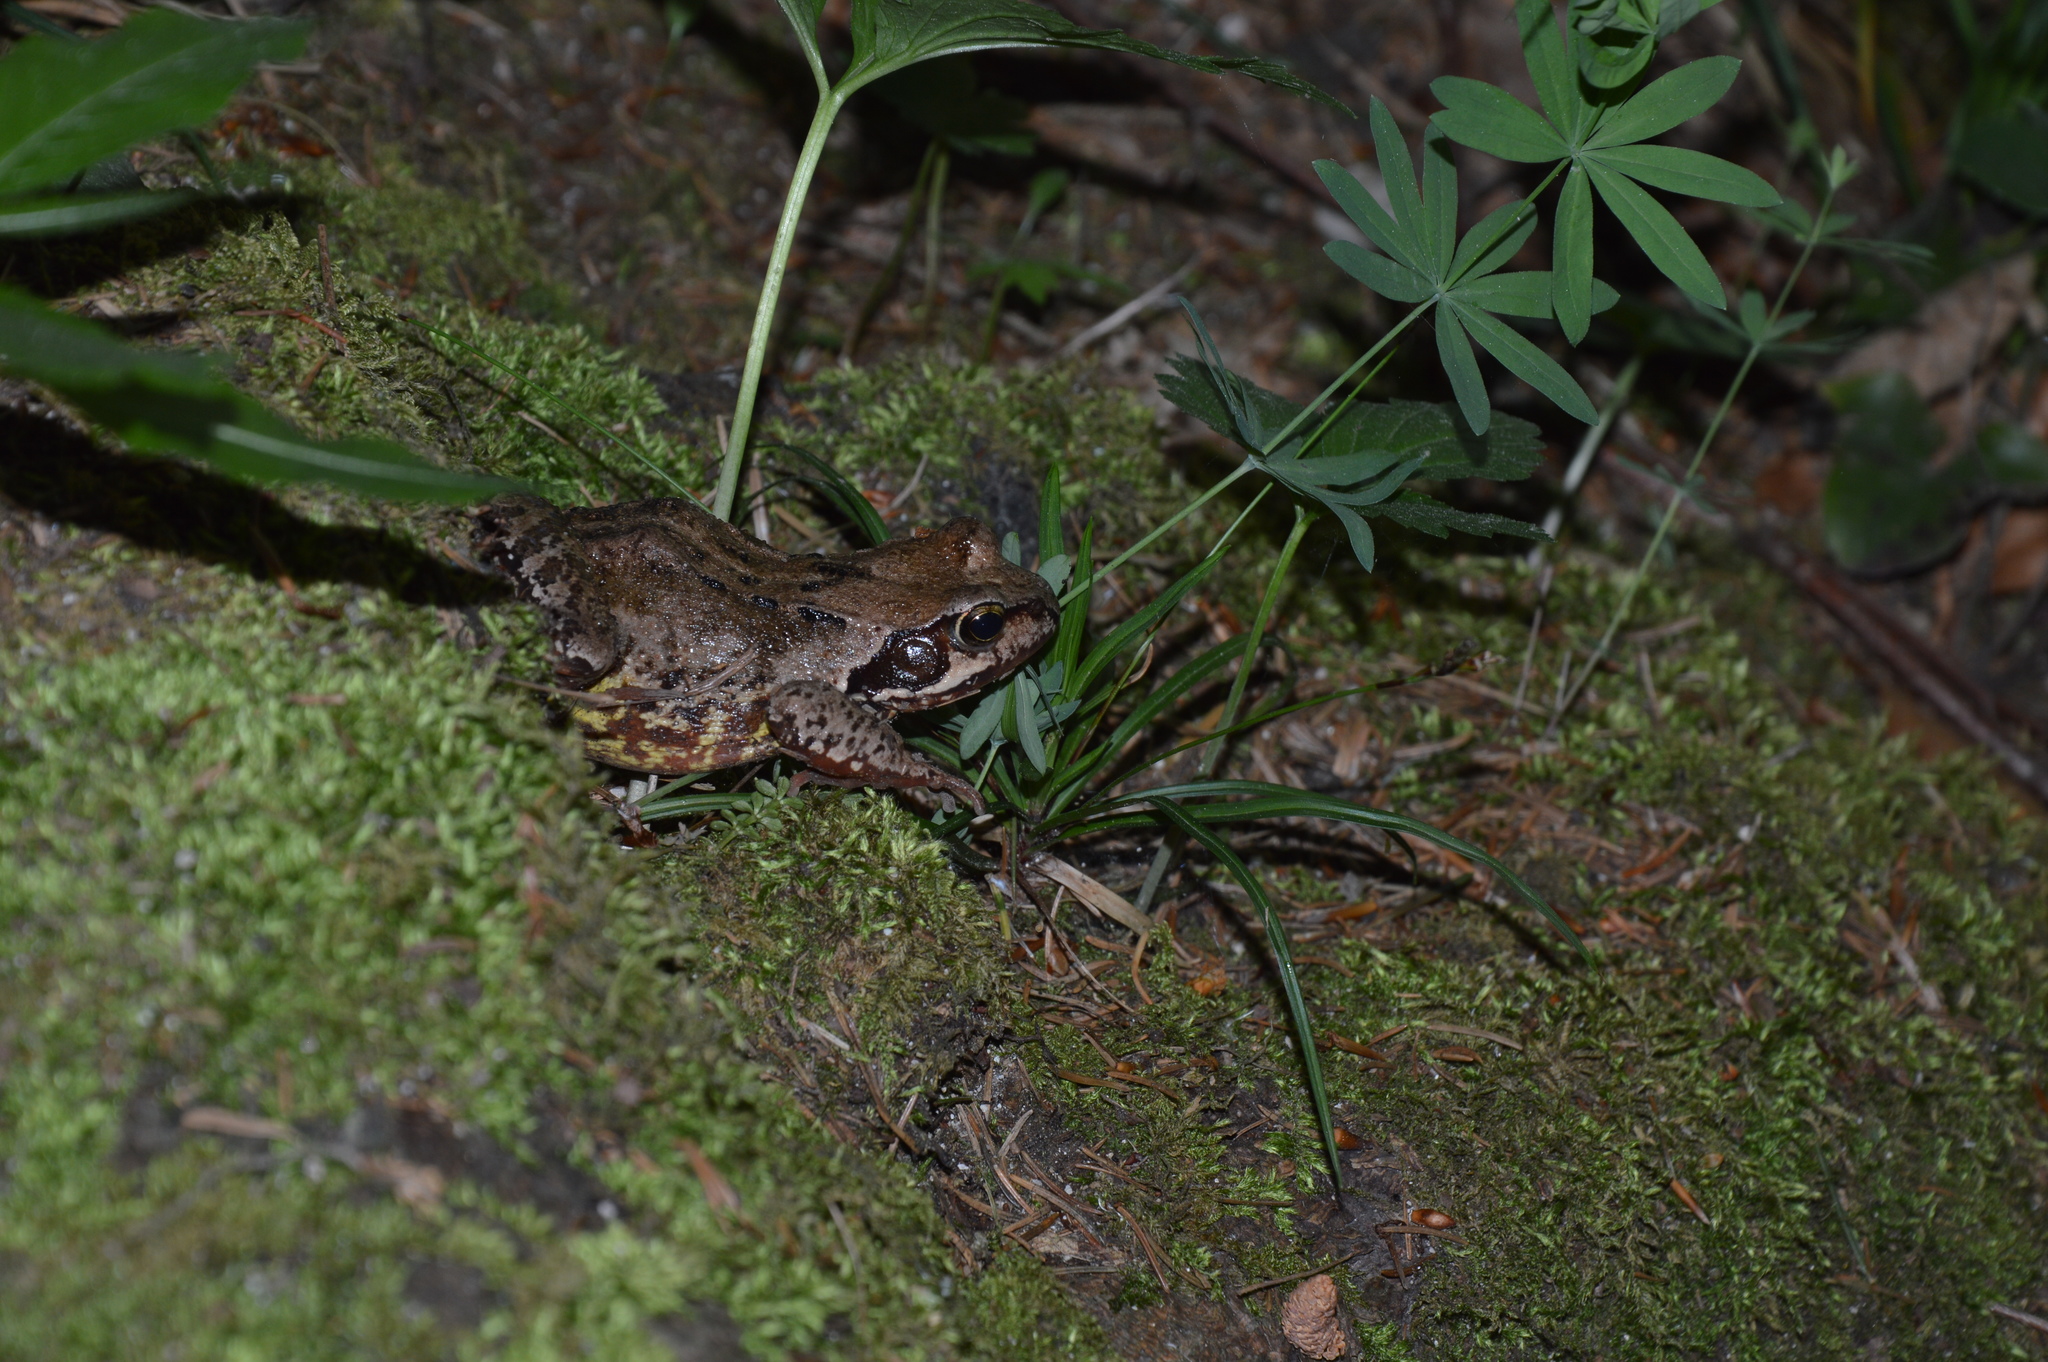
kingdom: Animalia
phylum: Chordata
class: Amphibia
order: Anura
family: Ranidae
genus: Rana
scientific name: Rana temporaria
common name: Common frog
